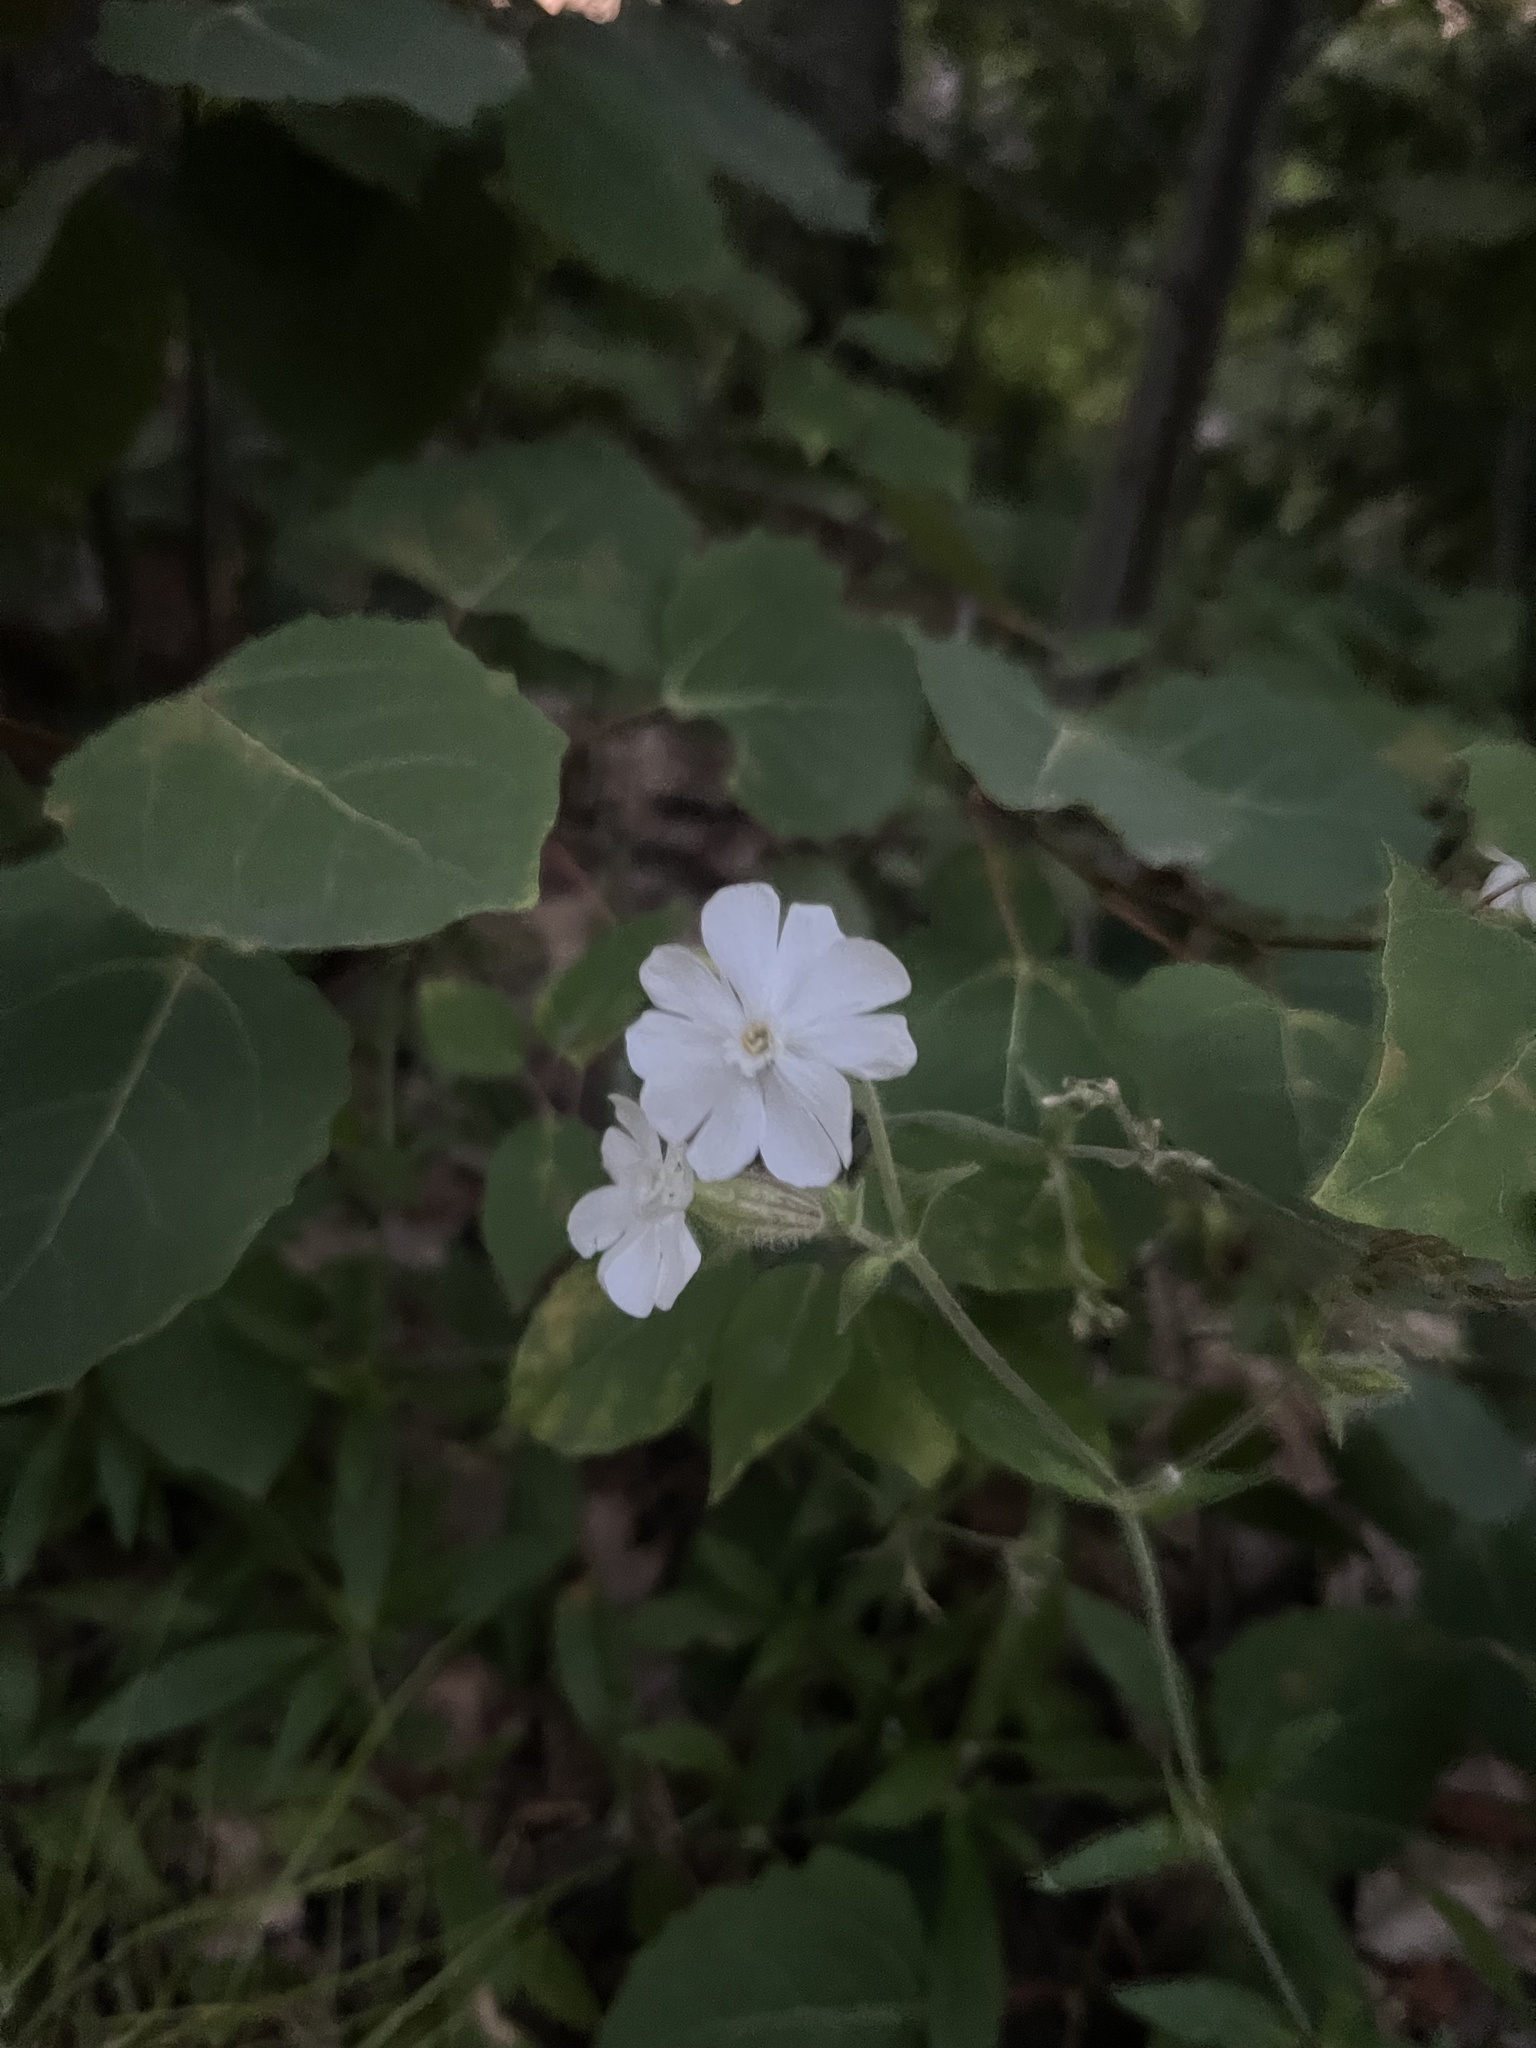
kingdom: Plantae
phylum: Tracheophyta
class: Magnoliopsida
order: Caryophyllales
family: Caryophyllaceae
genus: Silene
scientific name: Silene latifolia
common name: White campion
